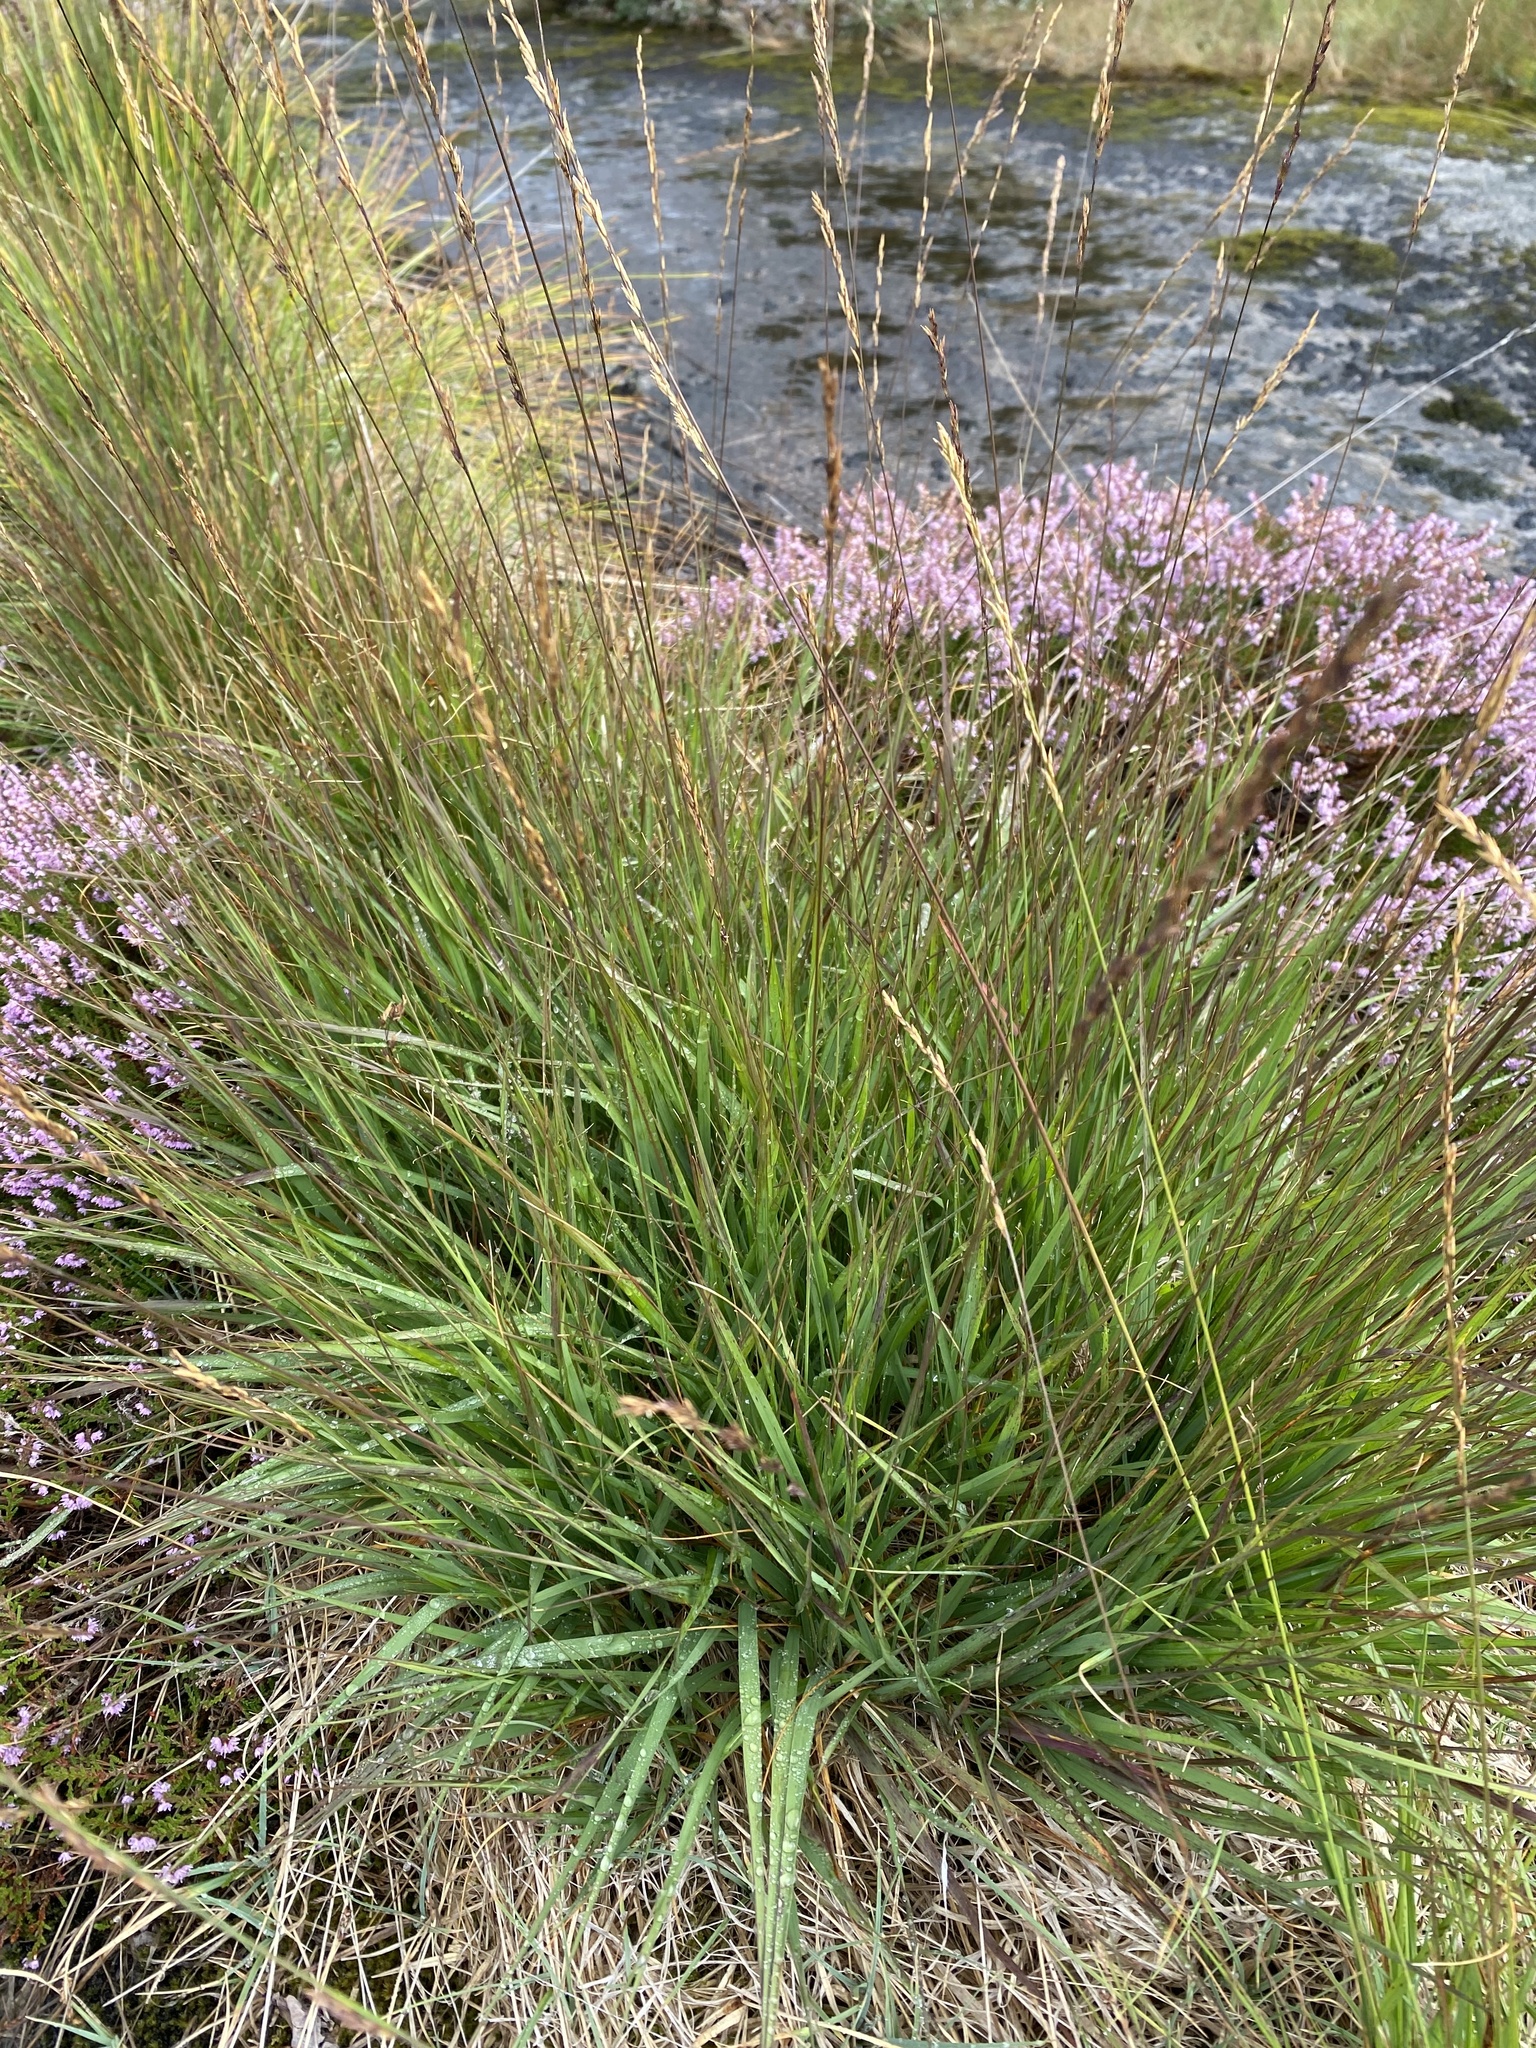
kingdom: Plantae
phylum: Tracheophyta
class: Liliopsida
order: Poales
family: Poaceae
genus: Molinia
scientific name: Molinia caerulea
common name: Purple moor-grass
